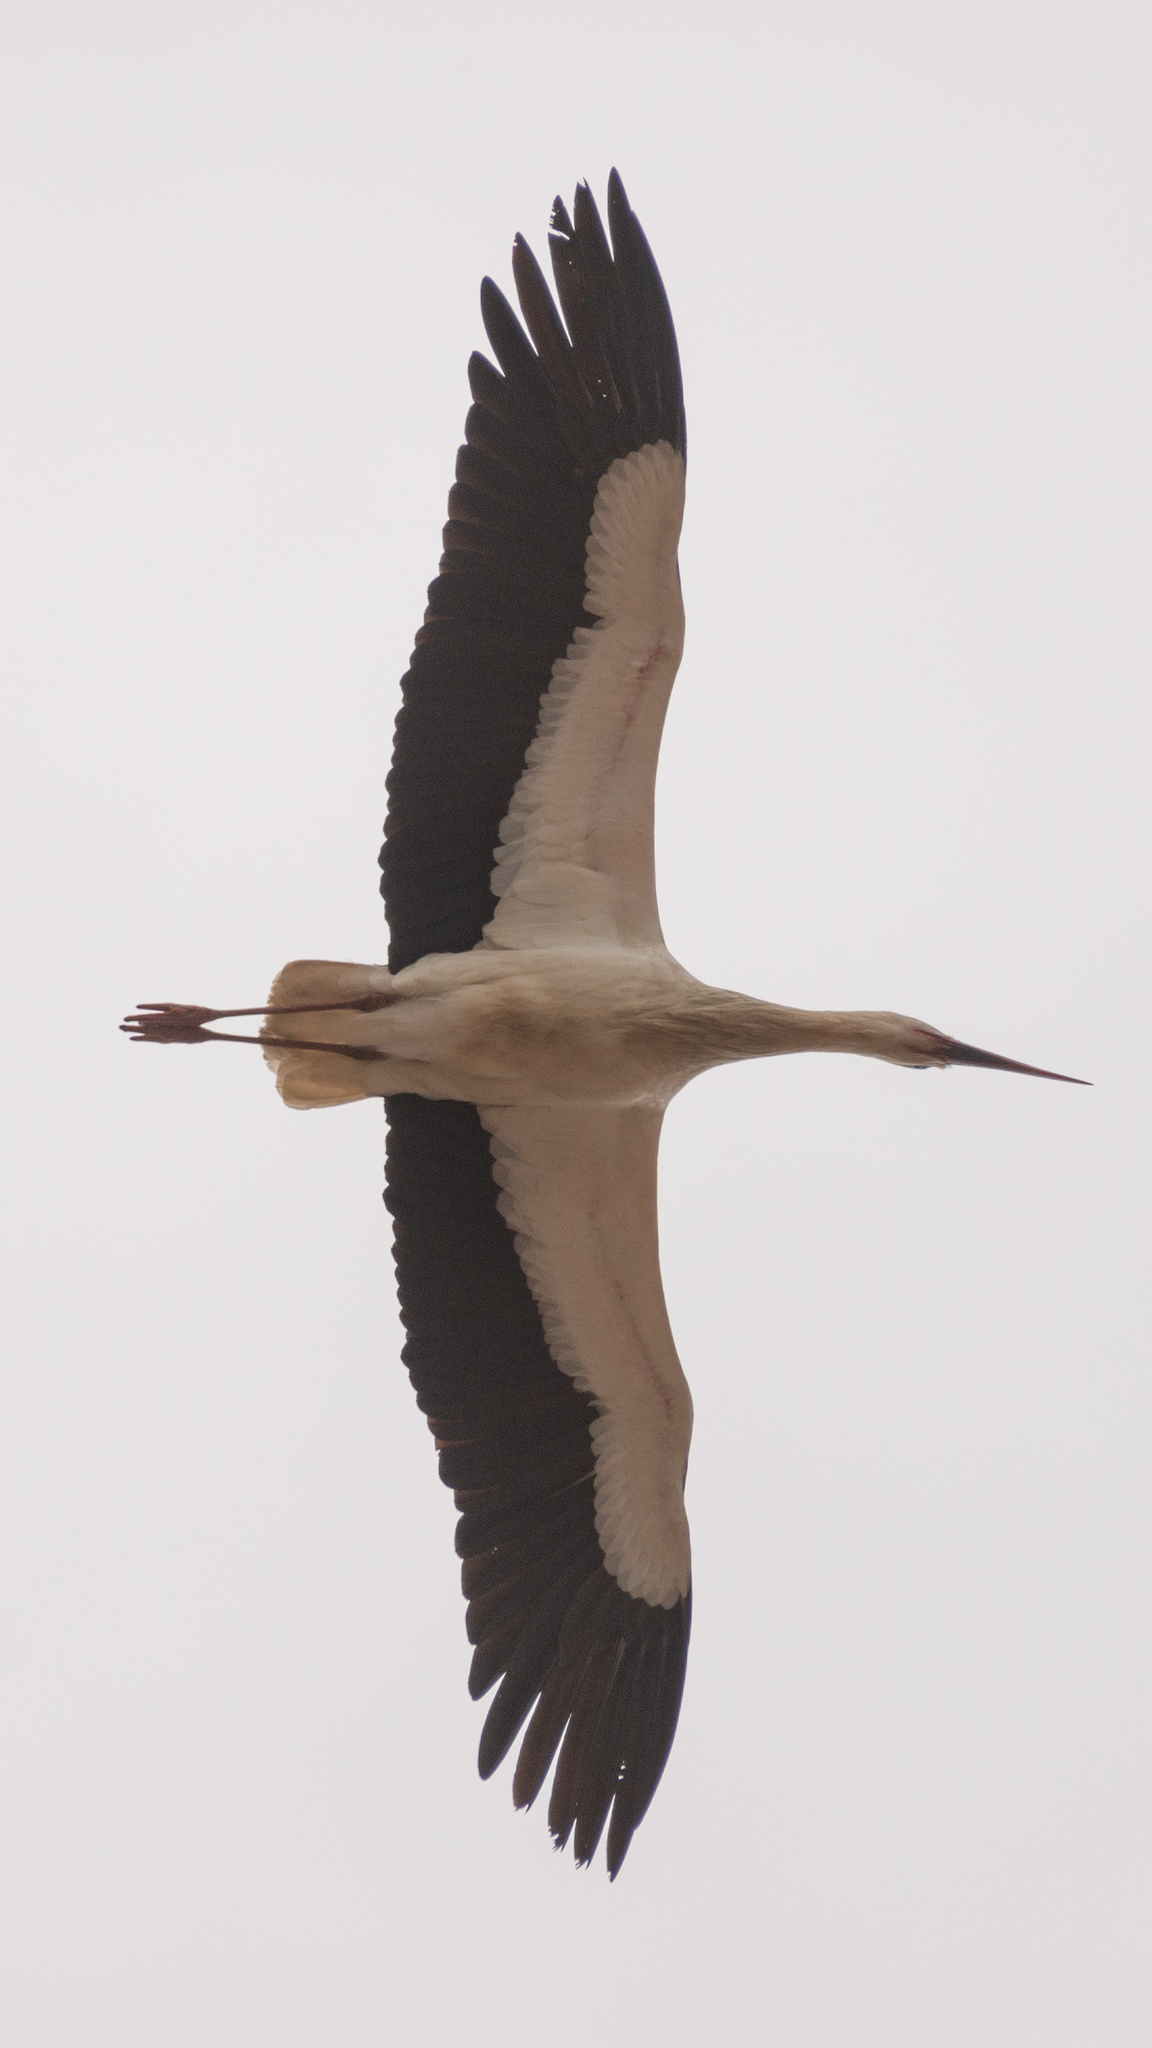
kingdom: Animalia
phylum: Chordata
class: Aves
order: Ciconiiformes
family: Ciconiidae
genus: Ciconia
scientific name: Ciconia ciconia
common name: White stork
